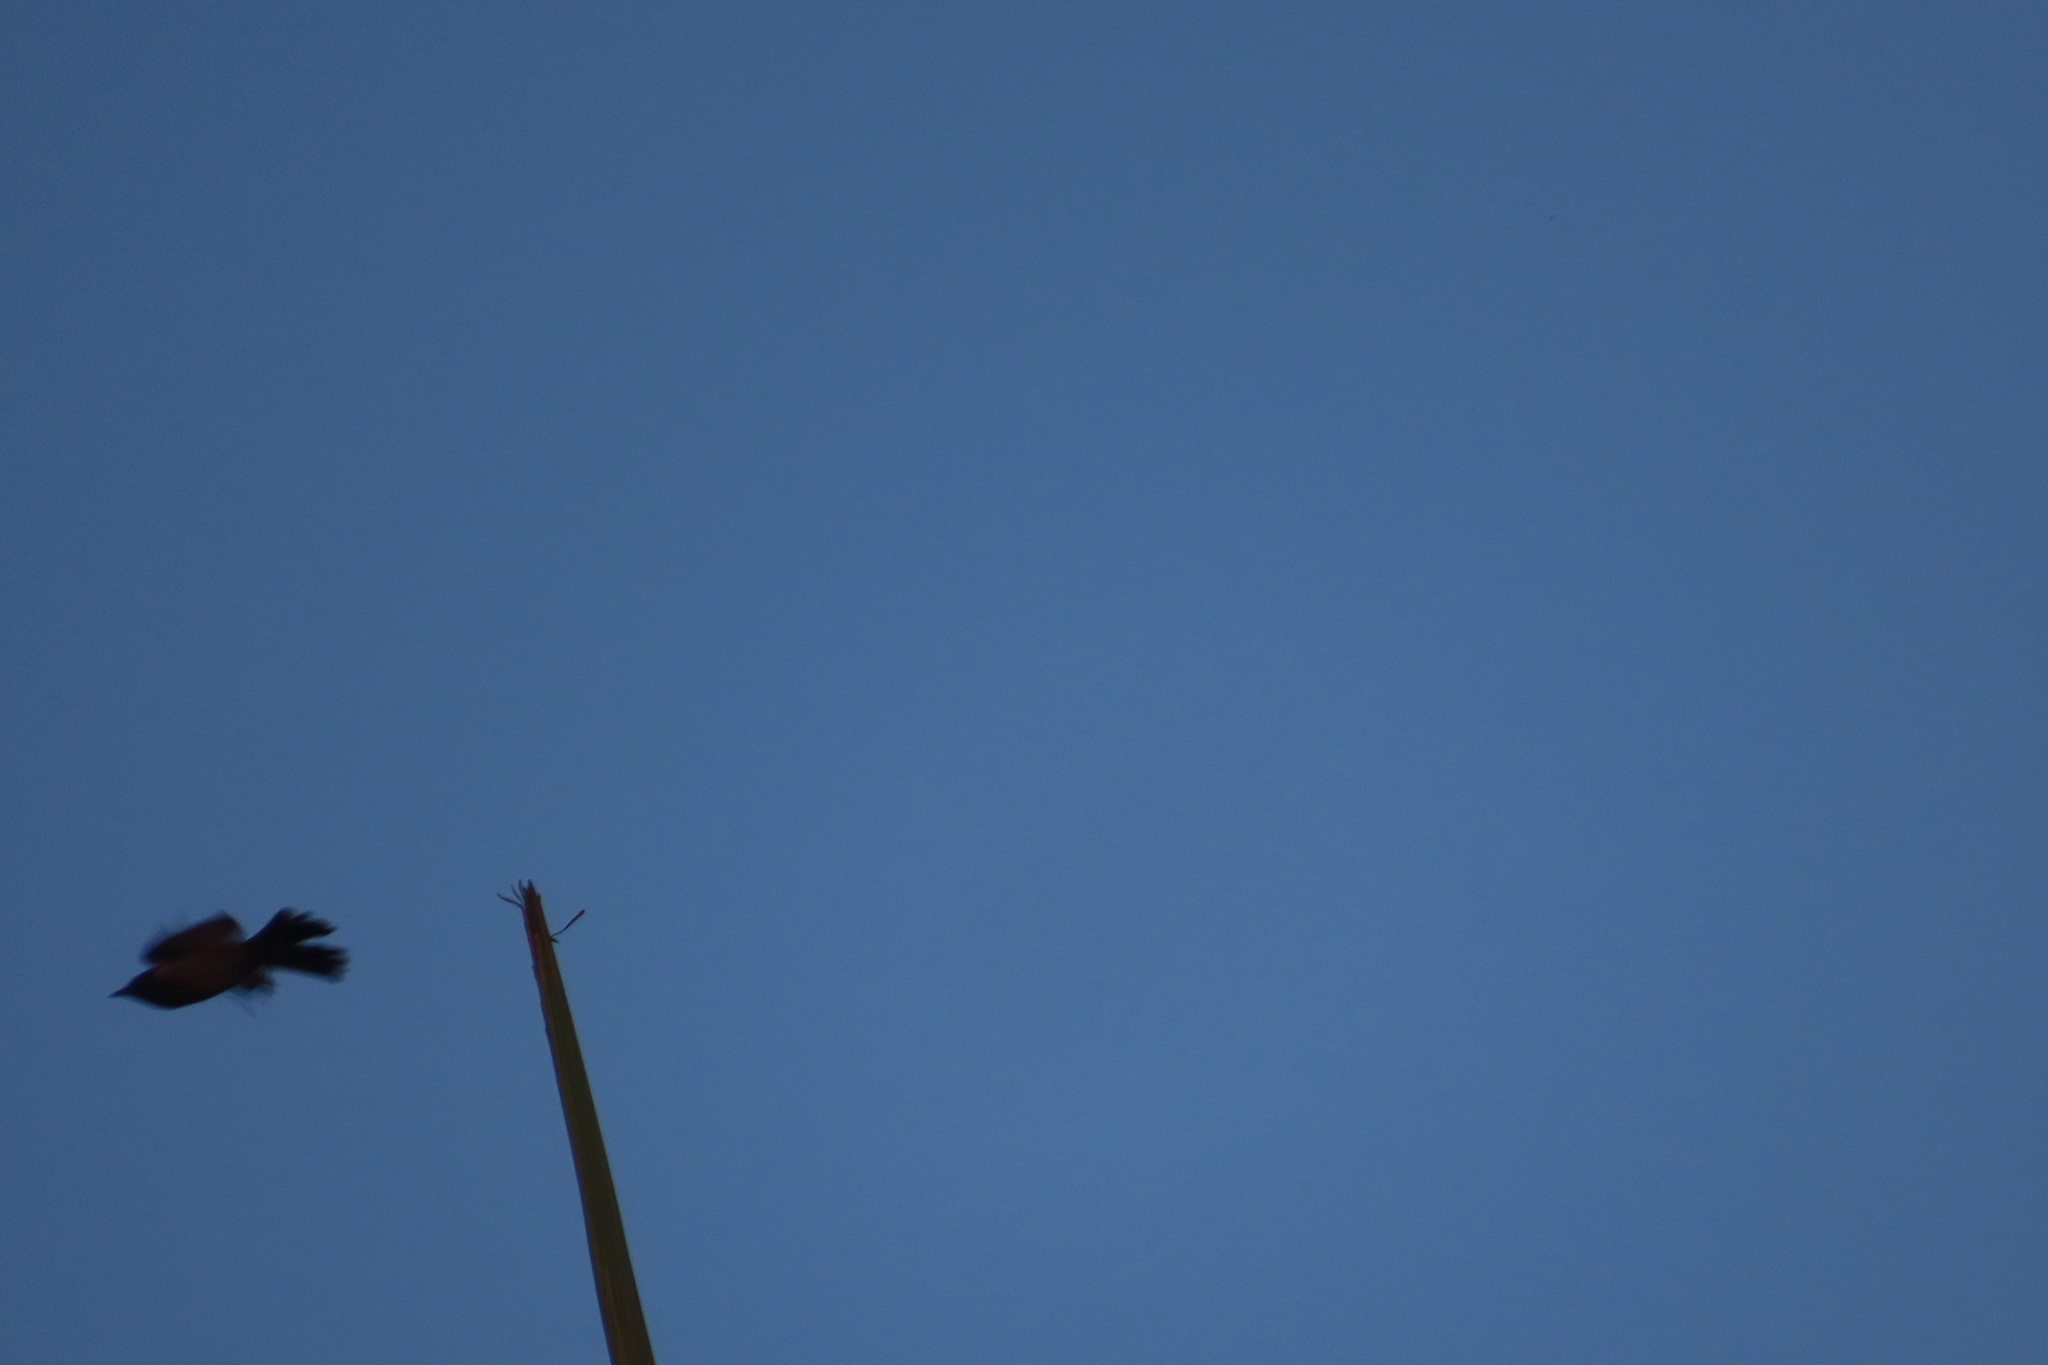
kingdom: Animalia
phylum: Chordata
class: Aves
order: Passeriformes
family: Pycnonotidae
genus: Pycnonotus
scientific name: Pycnonotus cafer
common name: Red-vented bulbul
